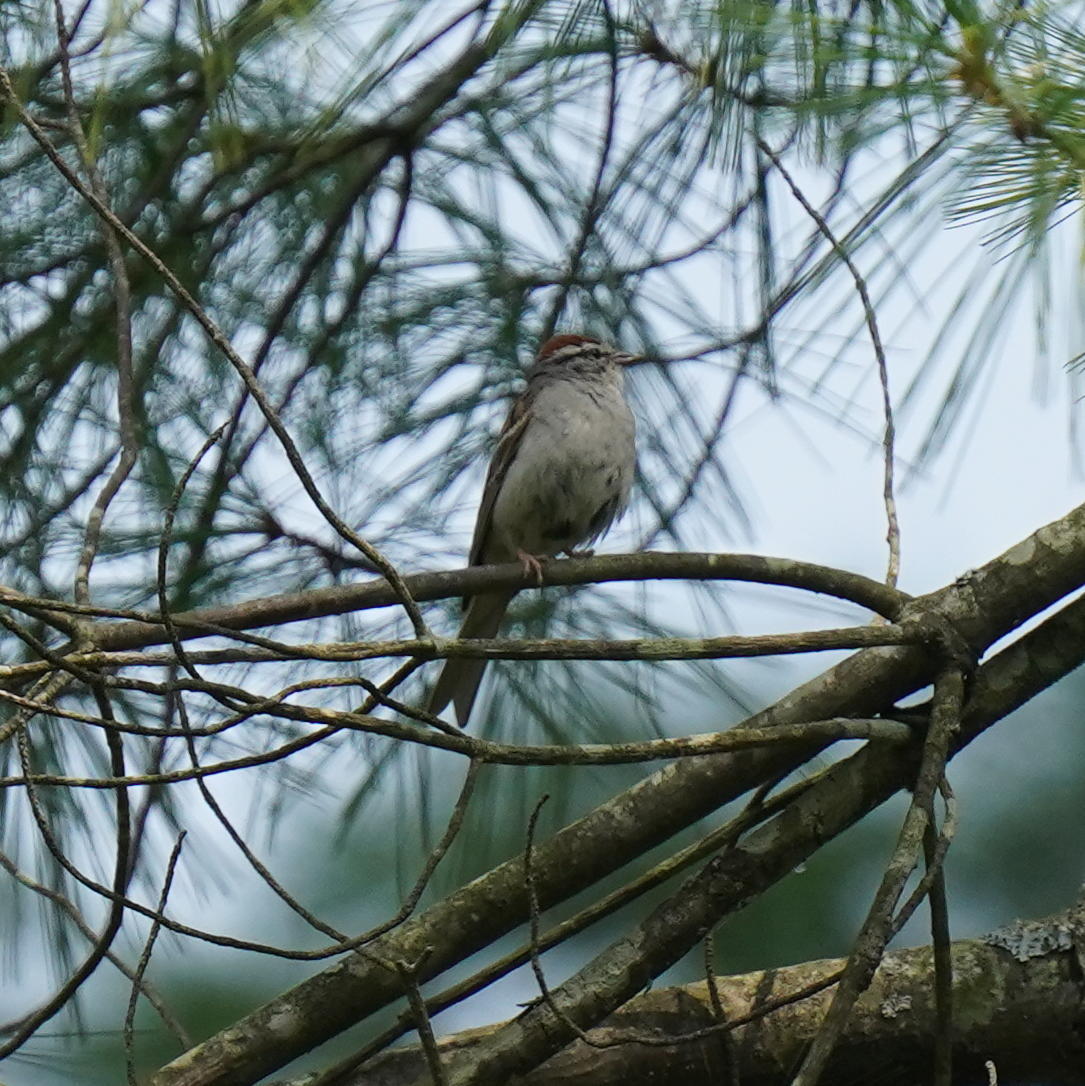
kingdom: Animalia
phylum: Chordata
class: Aves
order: Passeriformes
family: Passerellidae
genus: Spizella
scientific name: Spizella passerina
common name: Chipping sparrow
